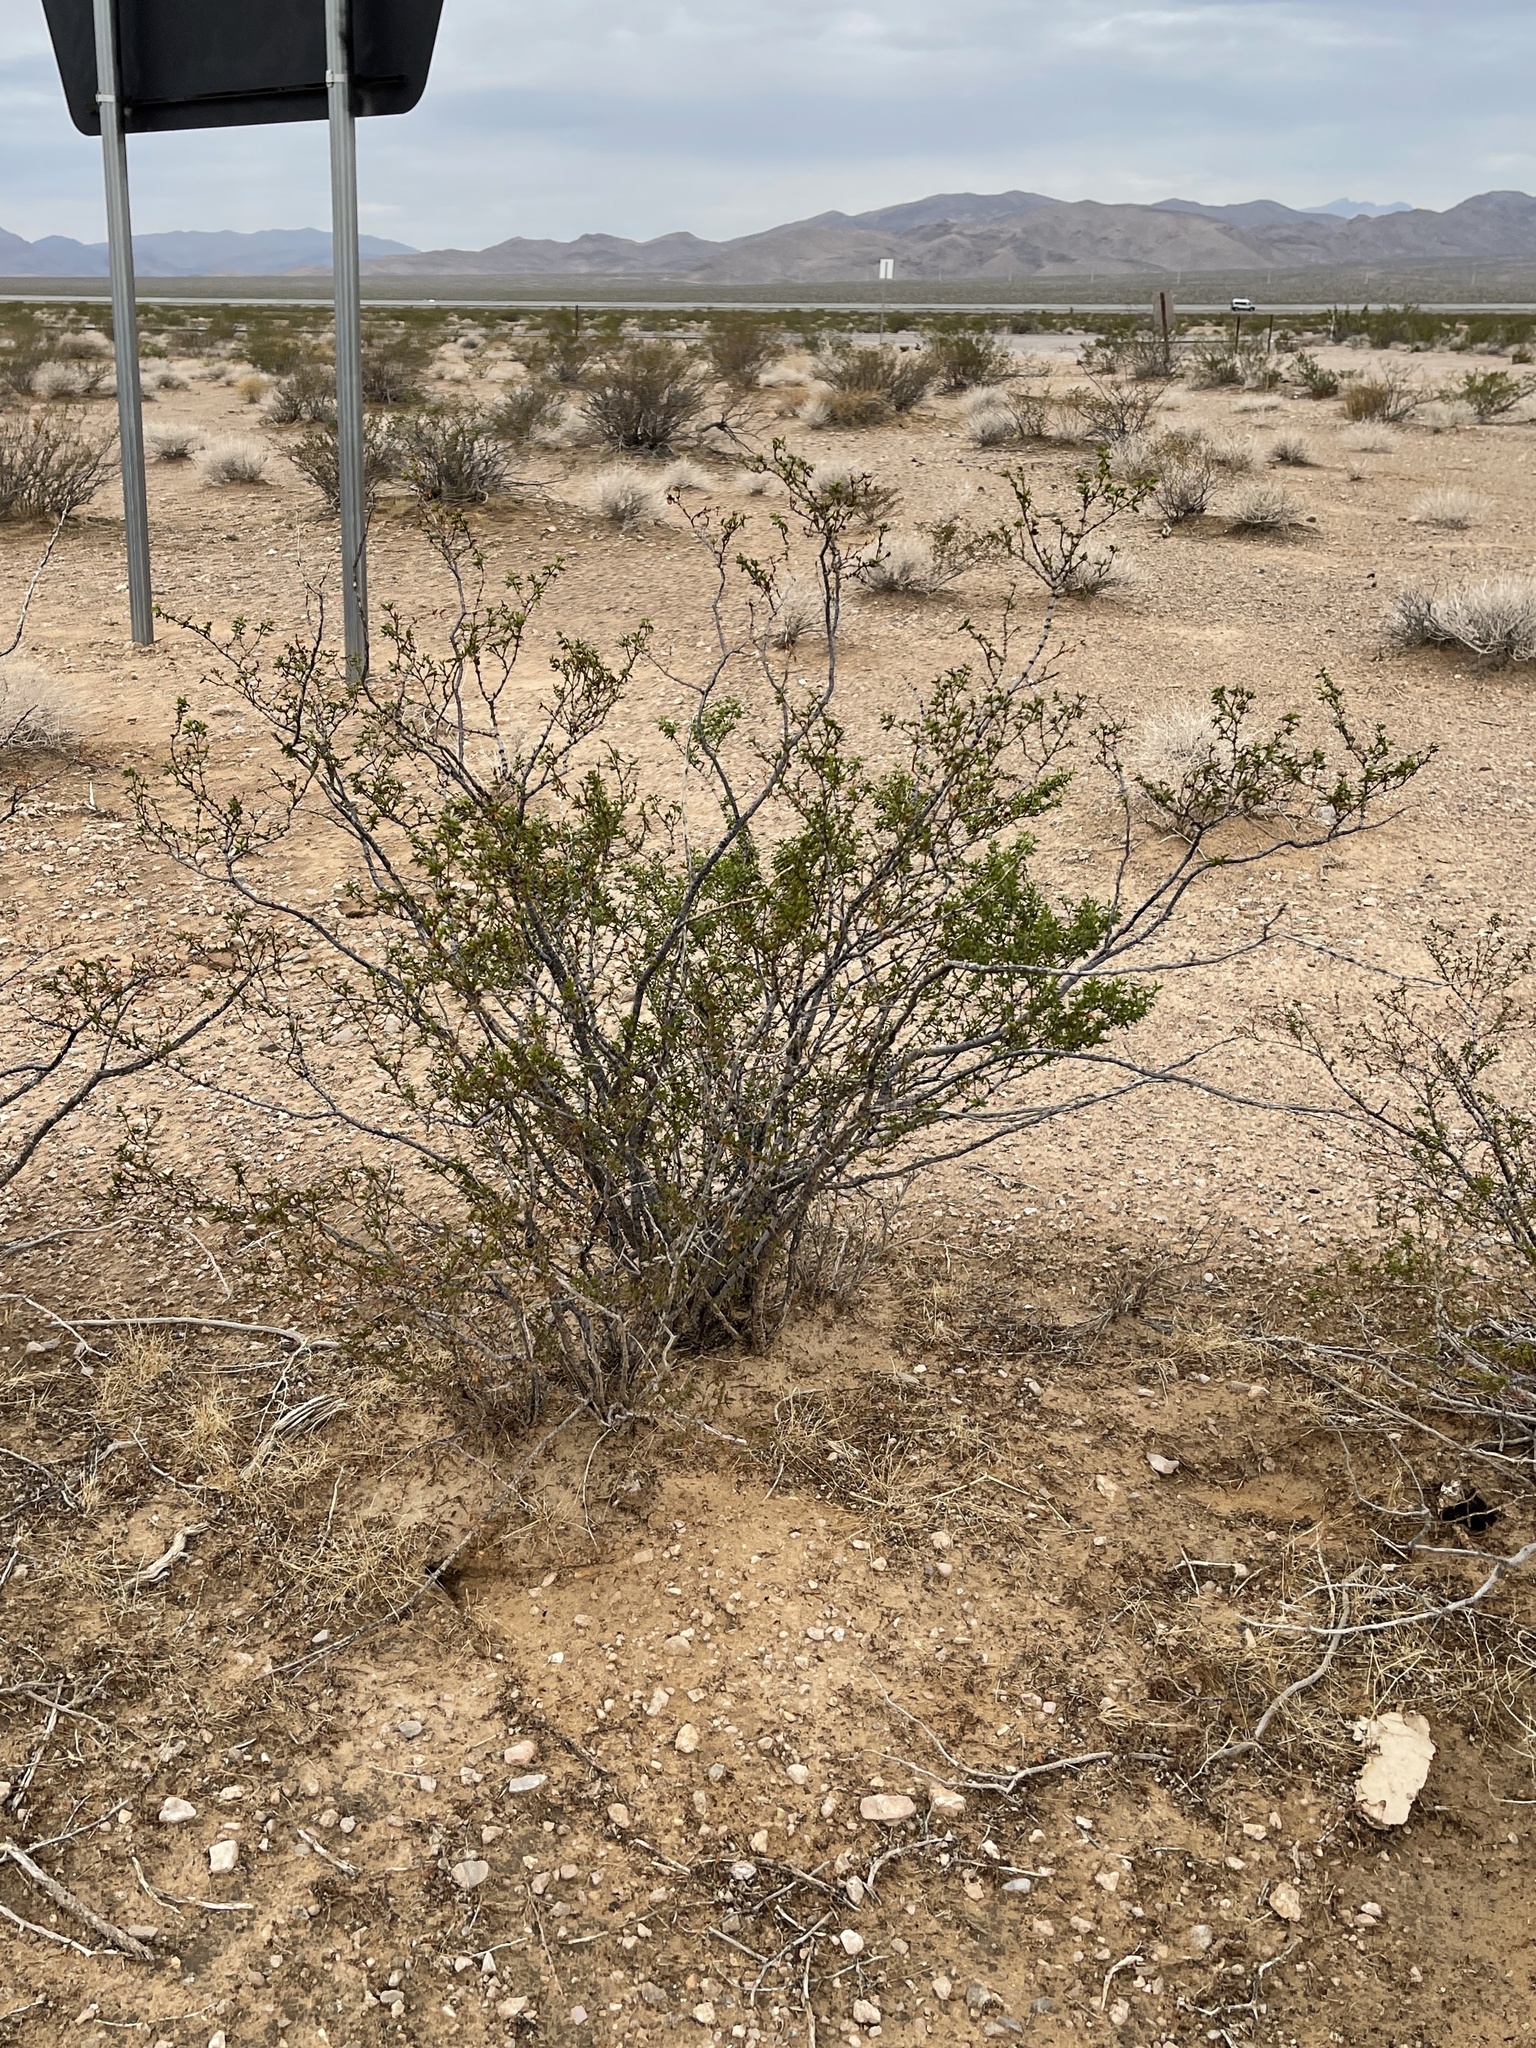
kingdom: Plantae
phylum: Tracheophyta
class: Magnoliopsida
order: Zygophyllales
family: Zygophyllaceae
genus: Larrea
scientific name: Larrea tridentata
